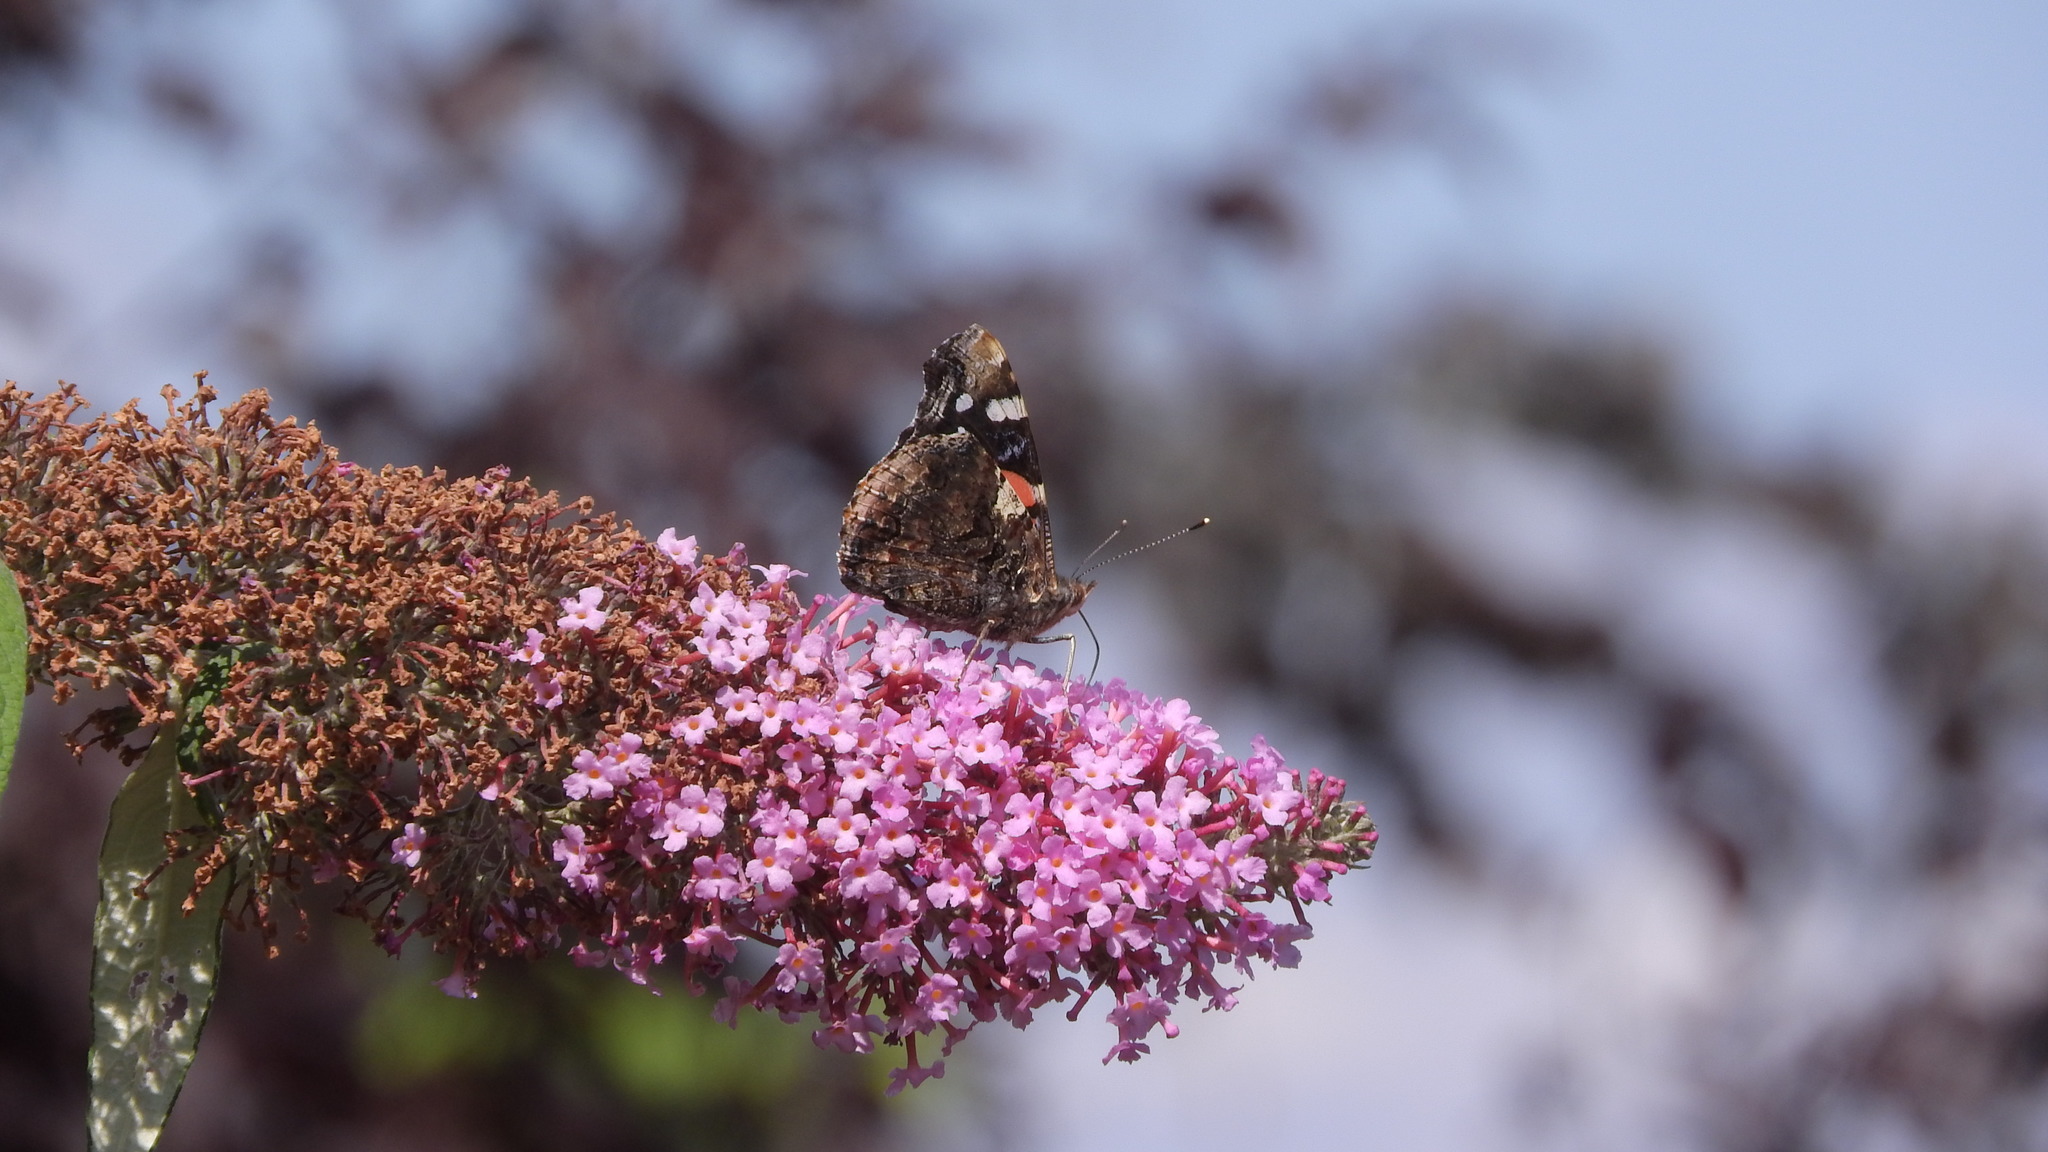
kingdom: Animalia
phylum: Arthropoda
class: Insecta
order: Lepidoptera
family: Nymphalidae
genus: Vanessa
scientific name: Vanessa atalanta
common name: Red admiral
